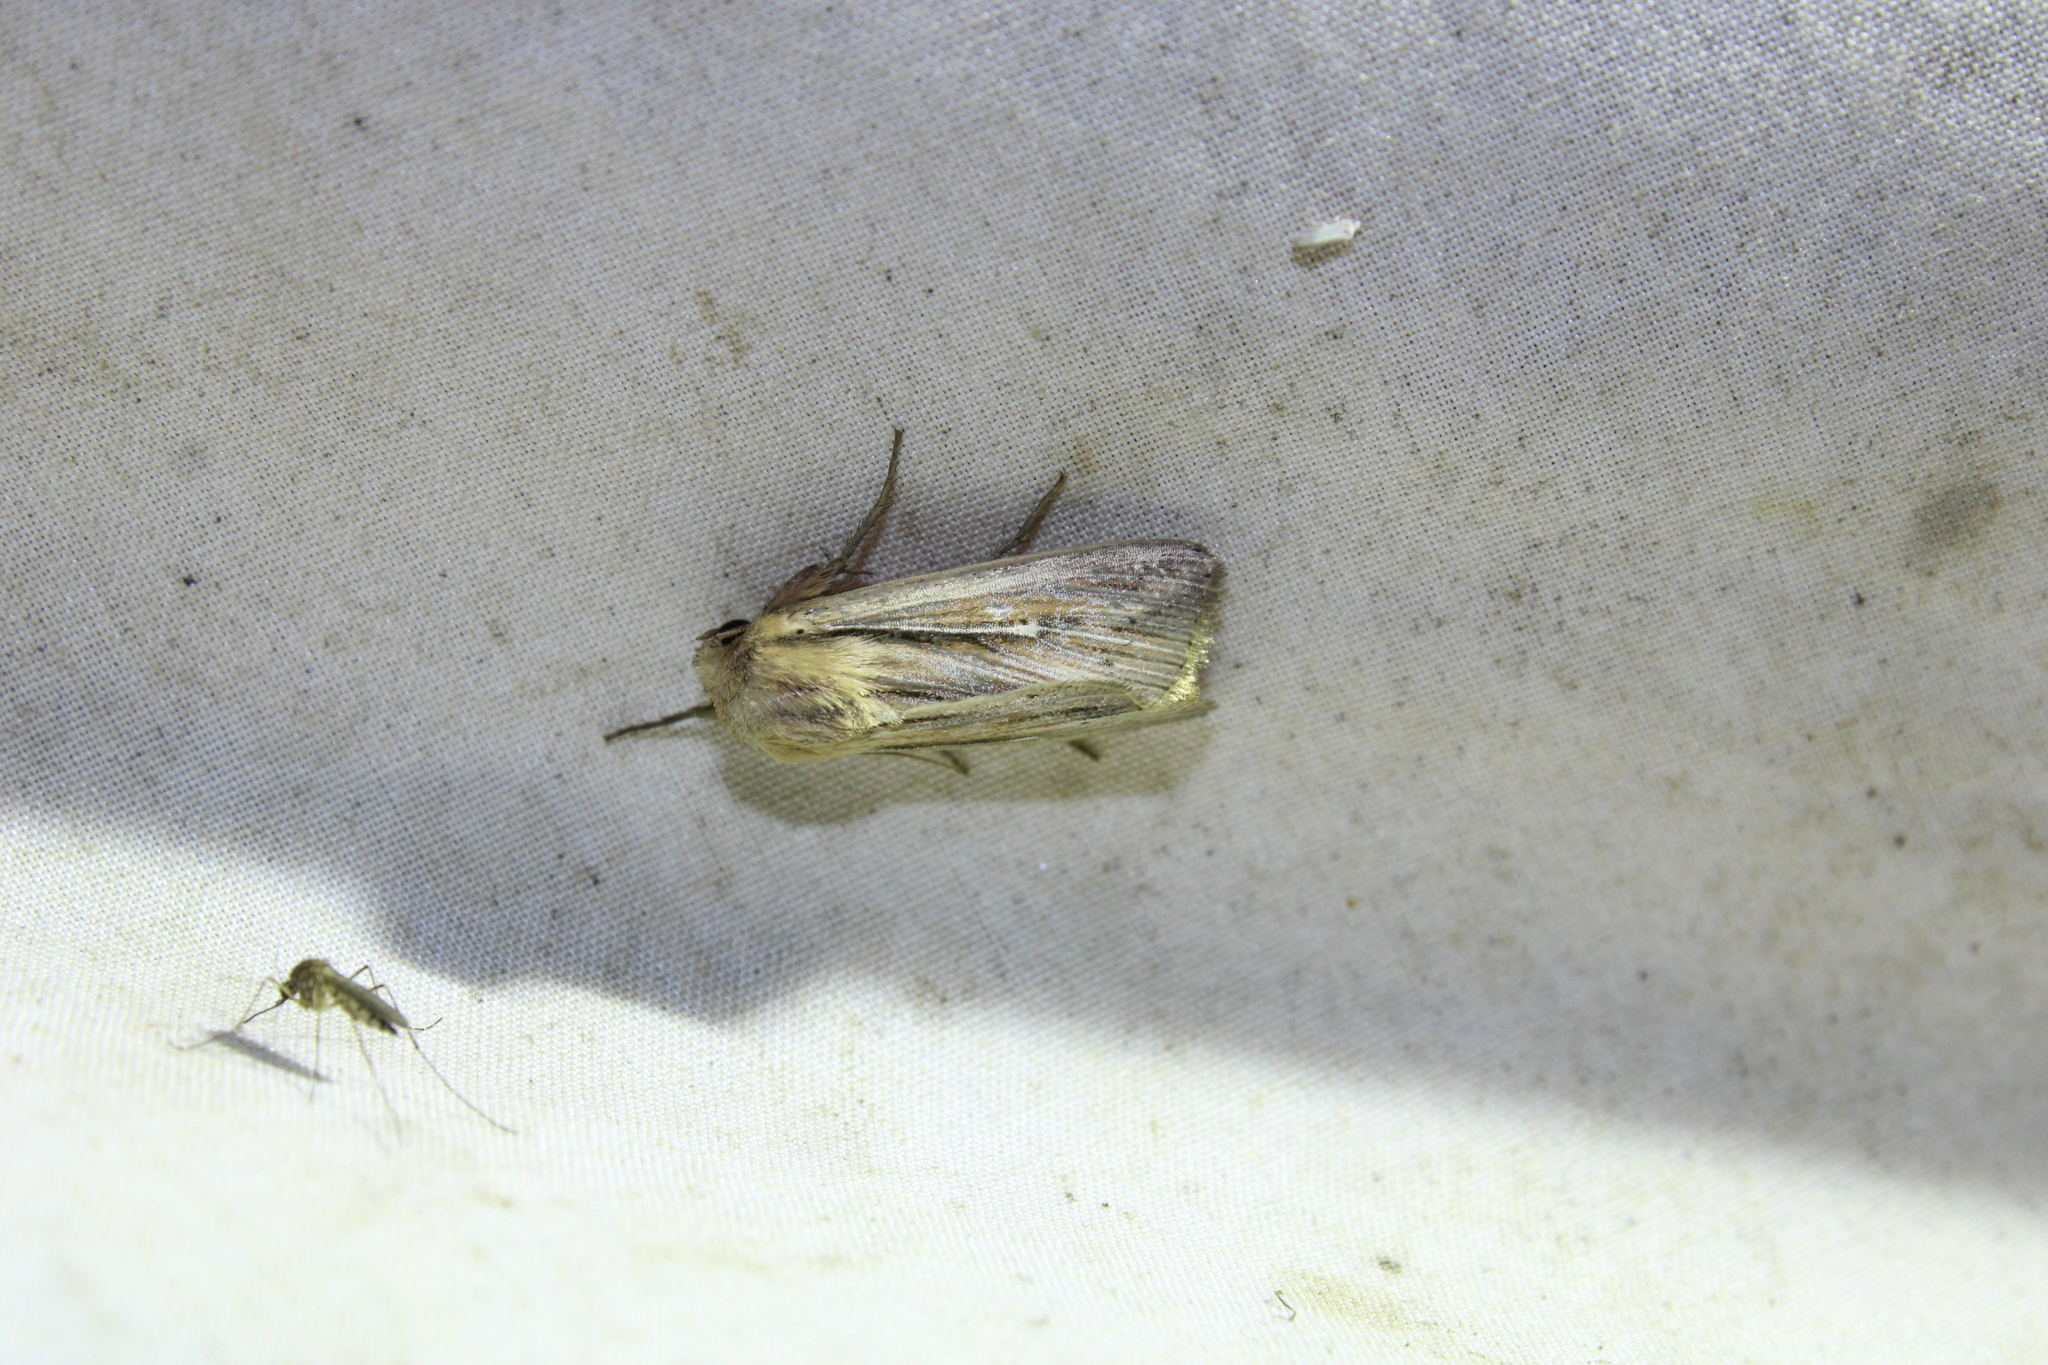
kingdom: Animalia
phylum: Arthropoda
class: Insecta
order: Lepidoptera
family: Noctuidae
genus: Leucania
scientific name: Leucania commoides
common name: Two-lined wainscot
